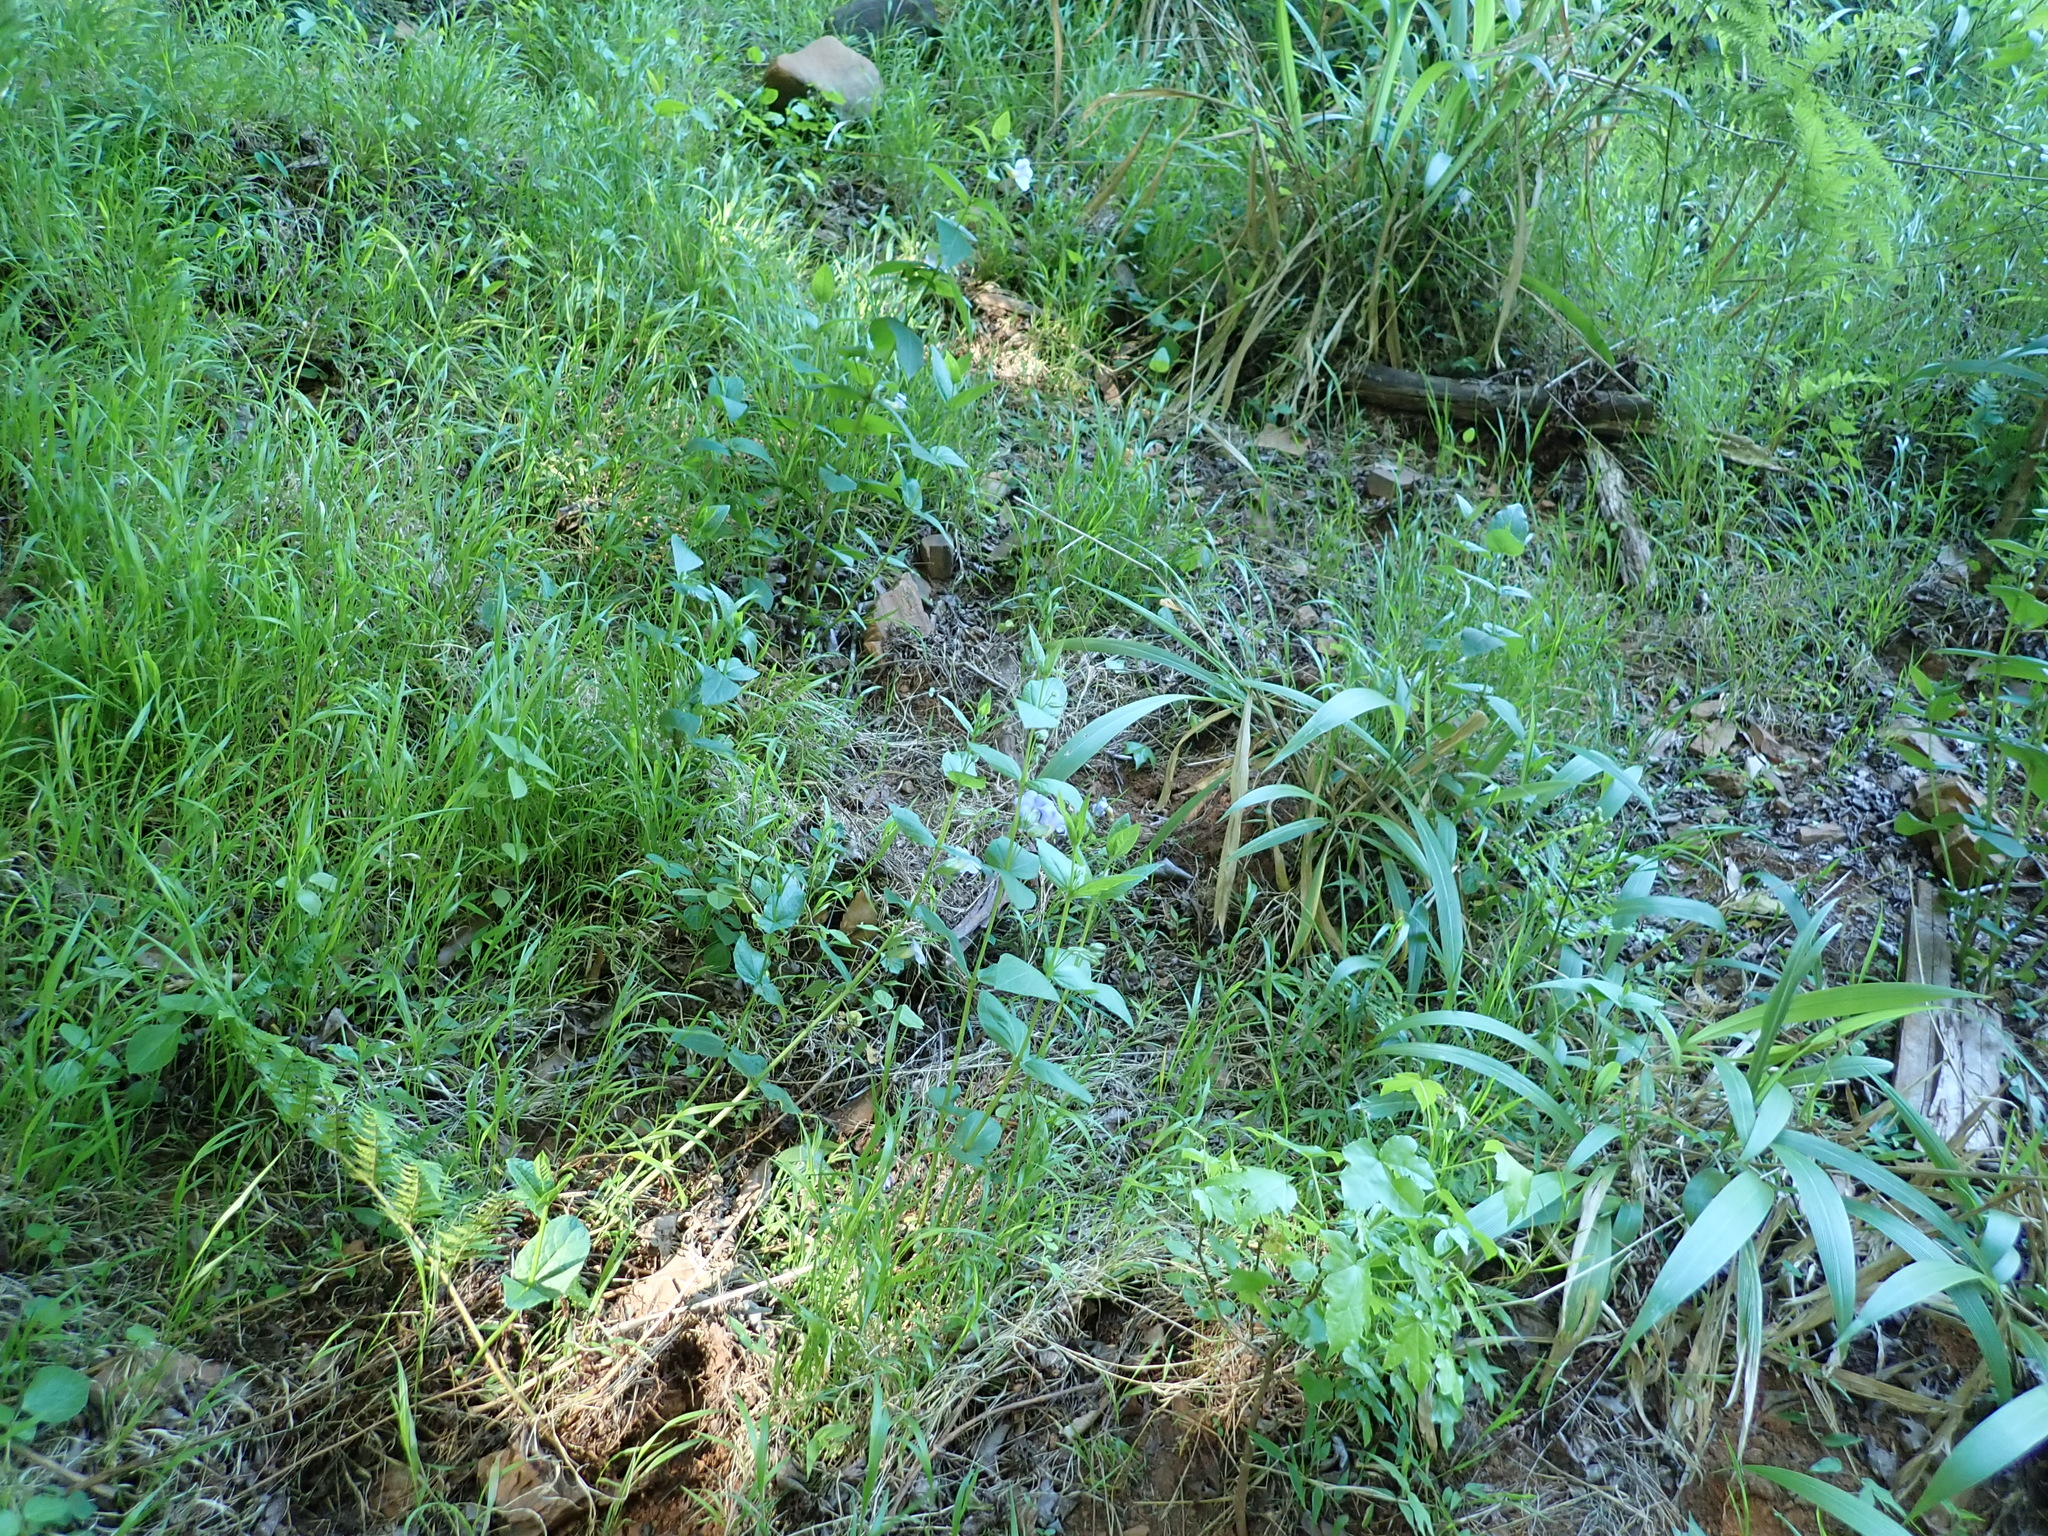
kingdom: Plantae
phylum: Tracheophyta
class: Magnoliopsida
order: Lamiales
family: Acanthaceae
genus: Thunbergia
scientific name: Thunbergia natalensis
